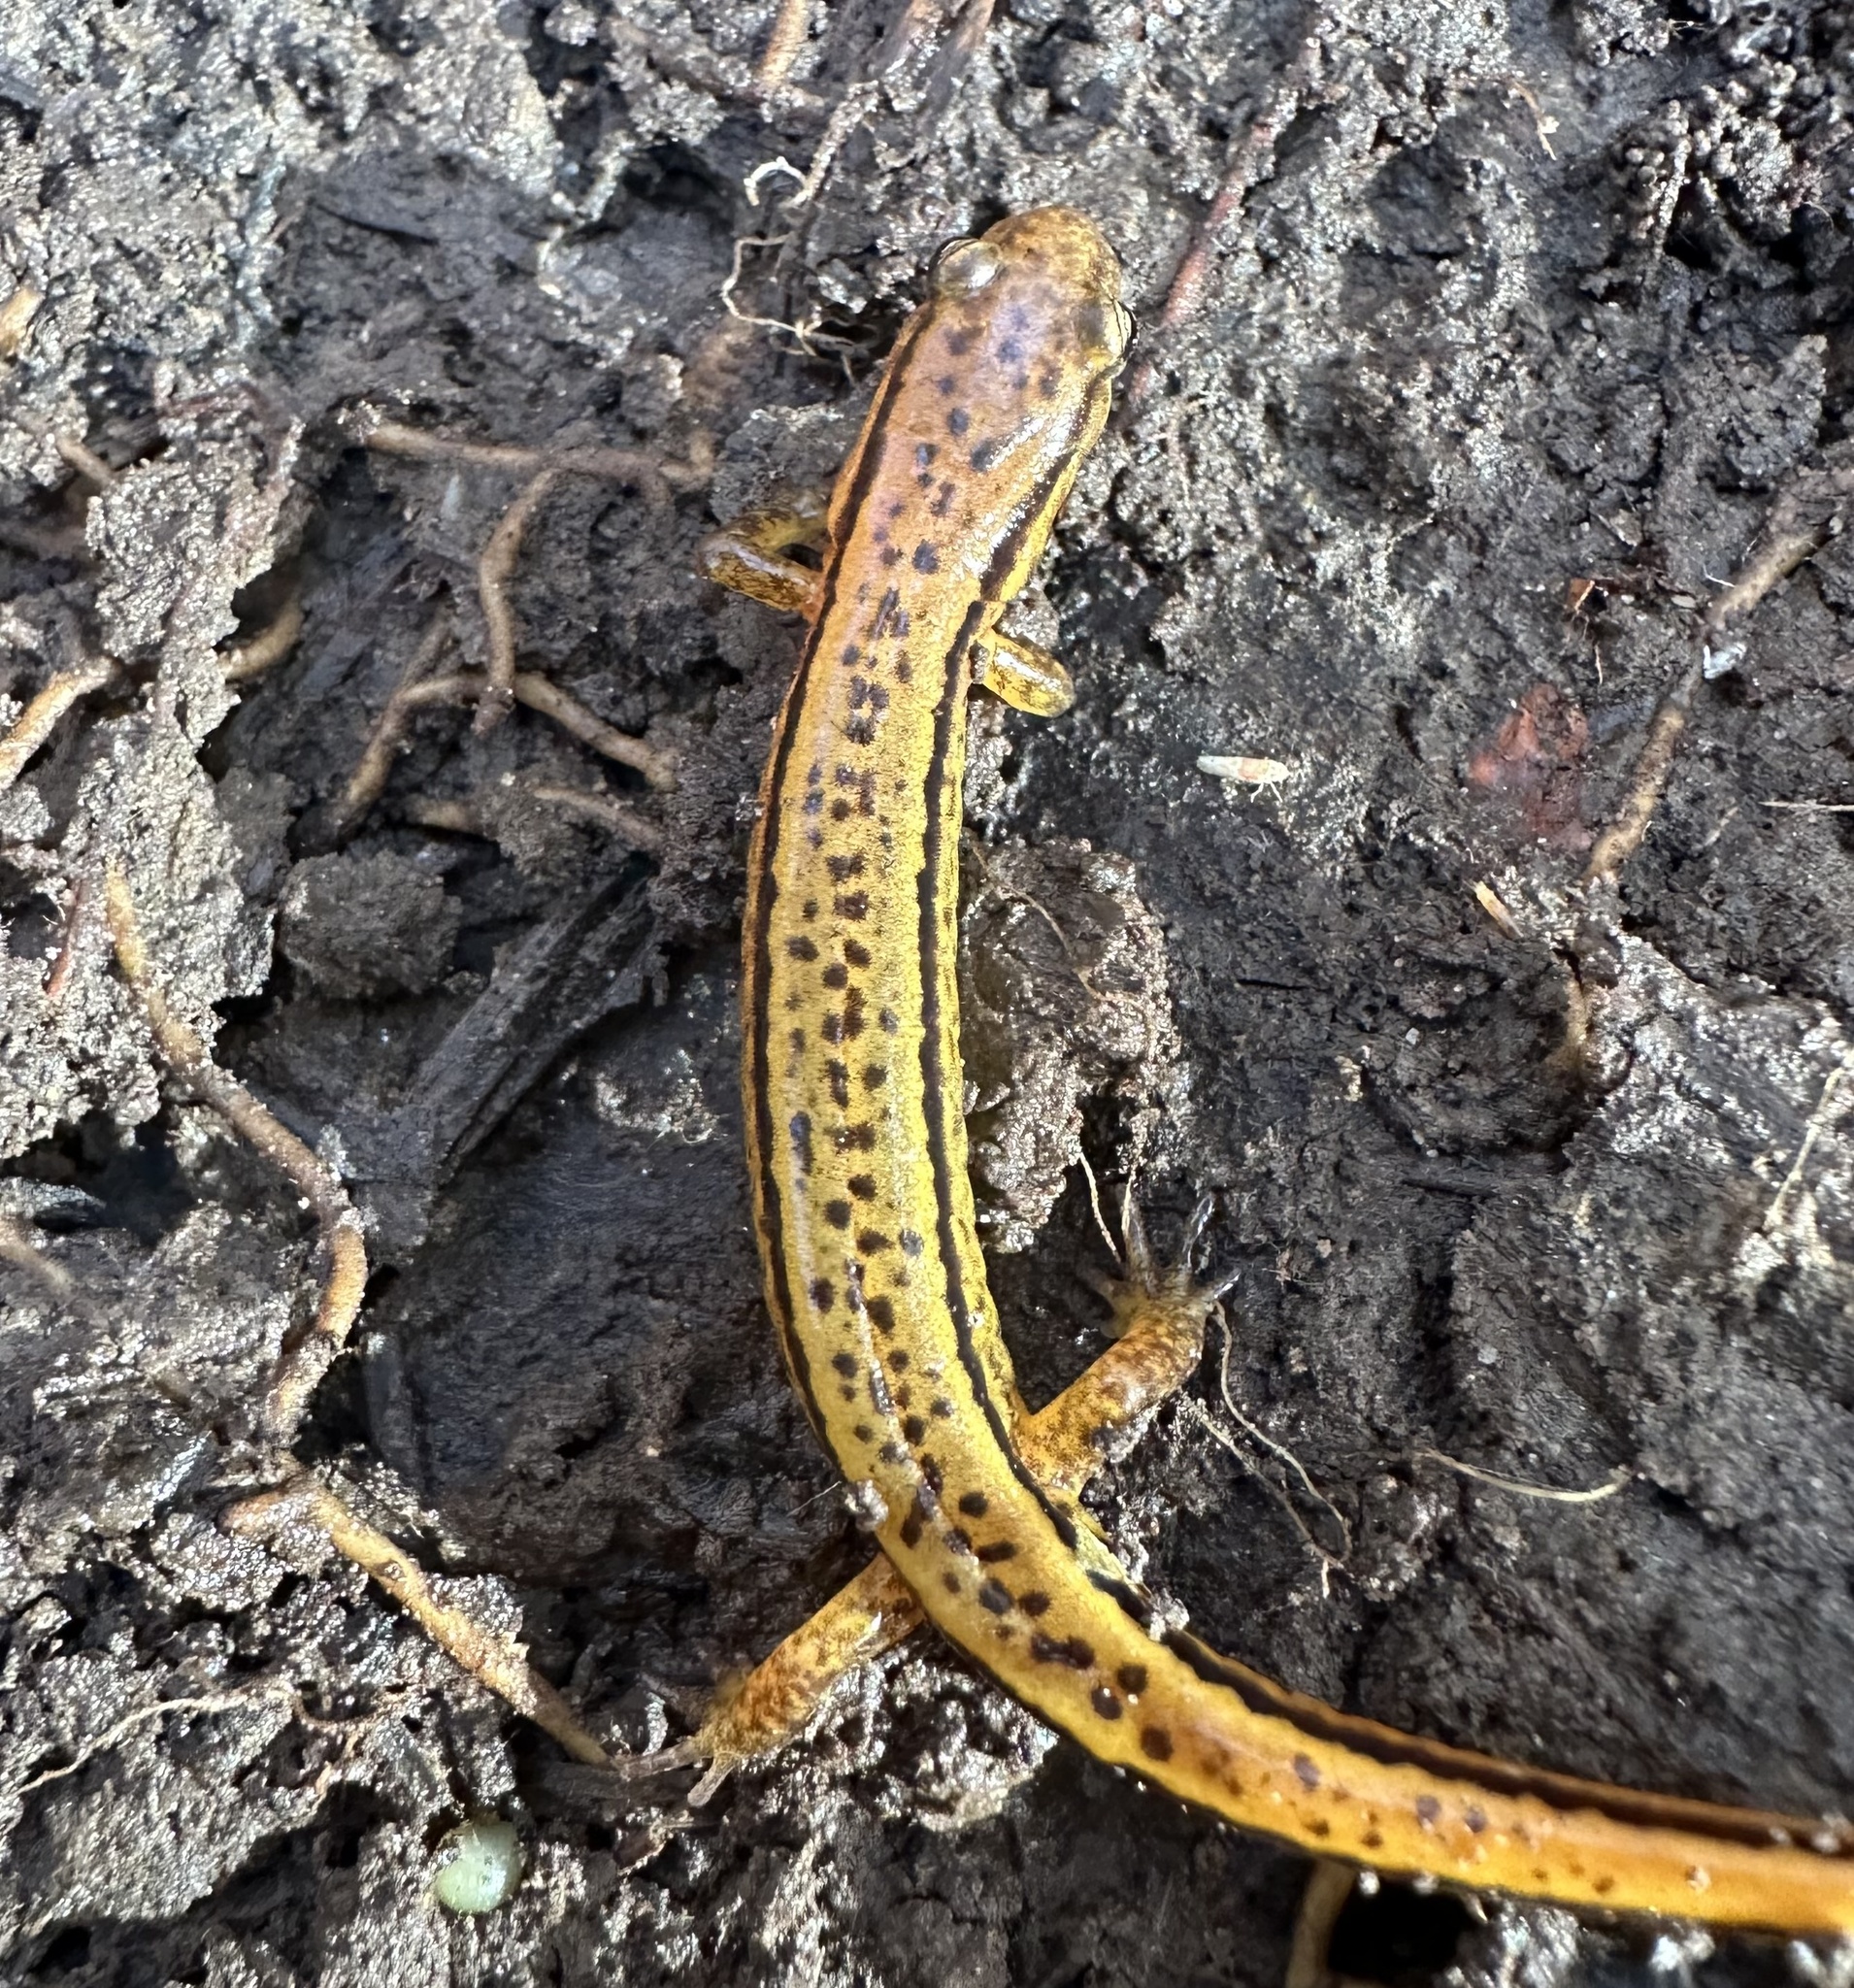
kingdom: Animalia
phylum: Chordata
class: Amphibia
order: Caudata
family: Plethodontidae
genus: Eurycea
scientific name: Eurycea cirrigera
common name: Southern two-lined salamander
